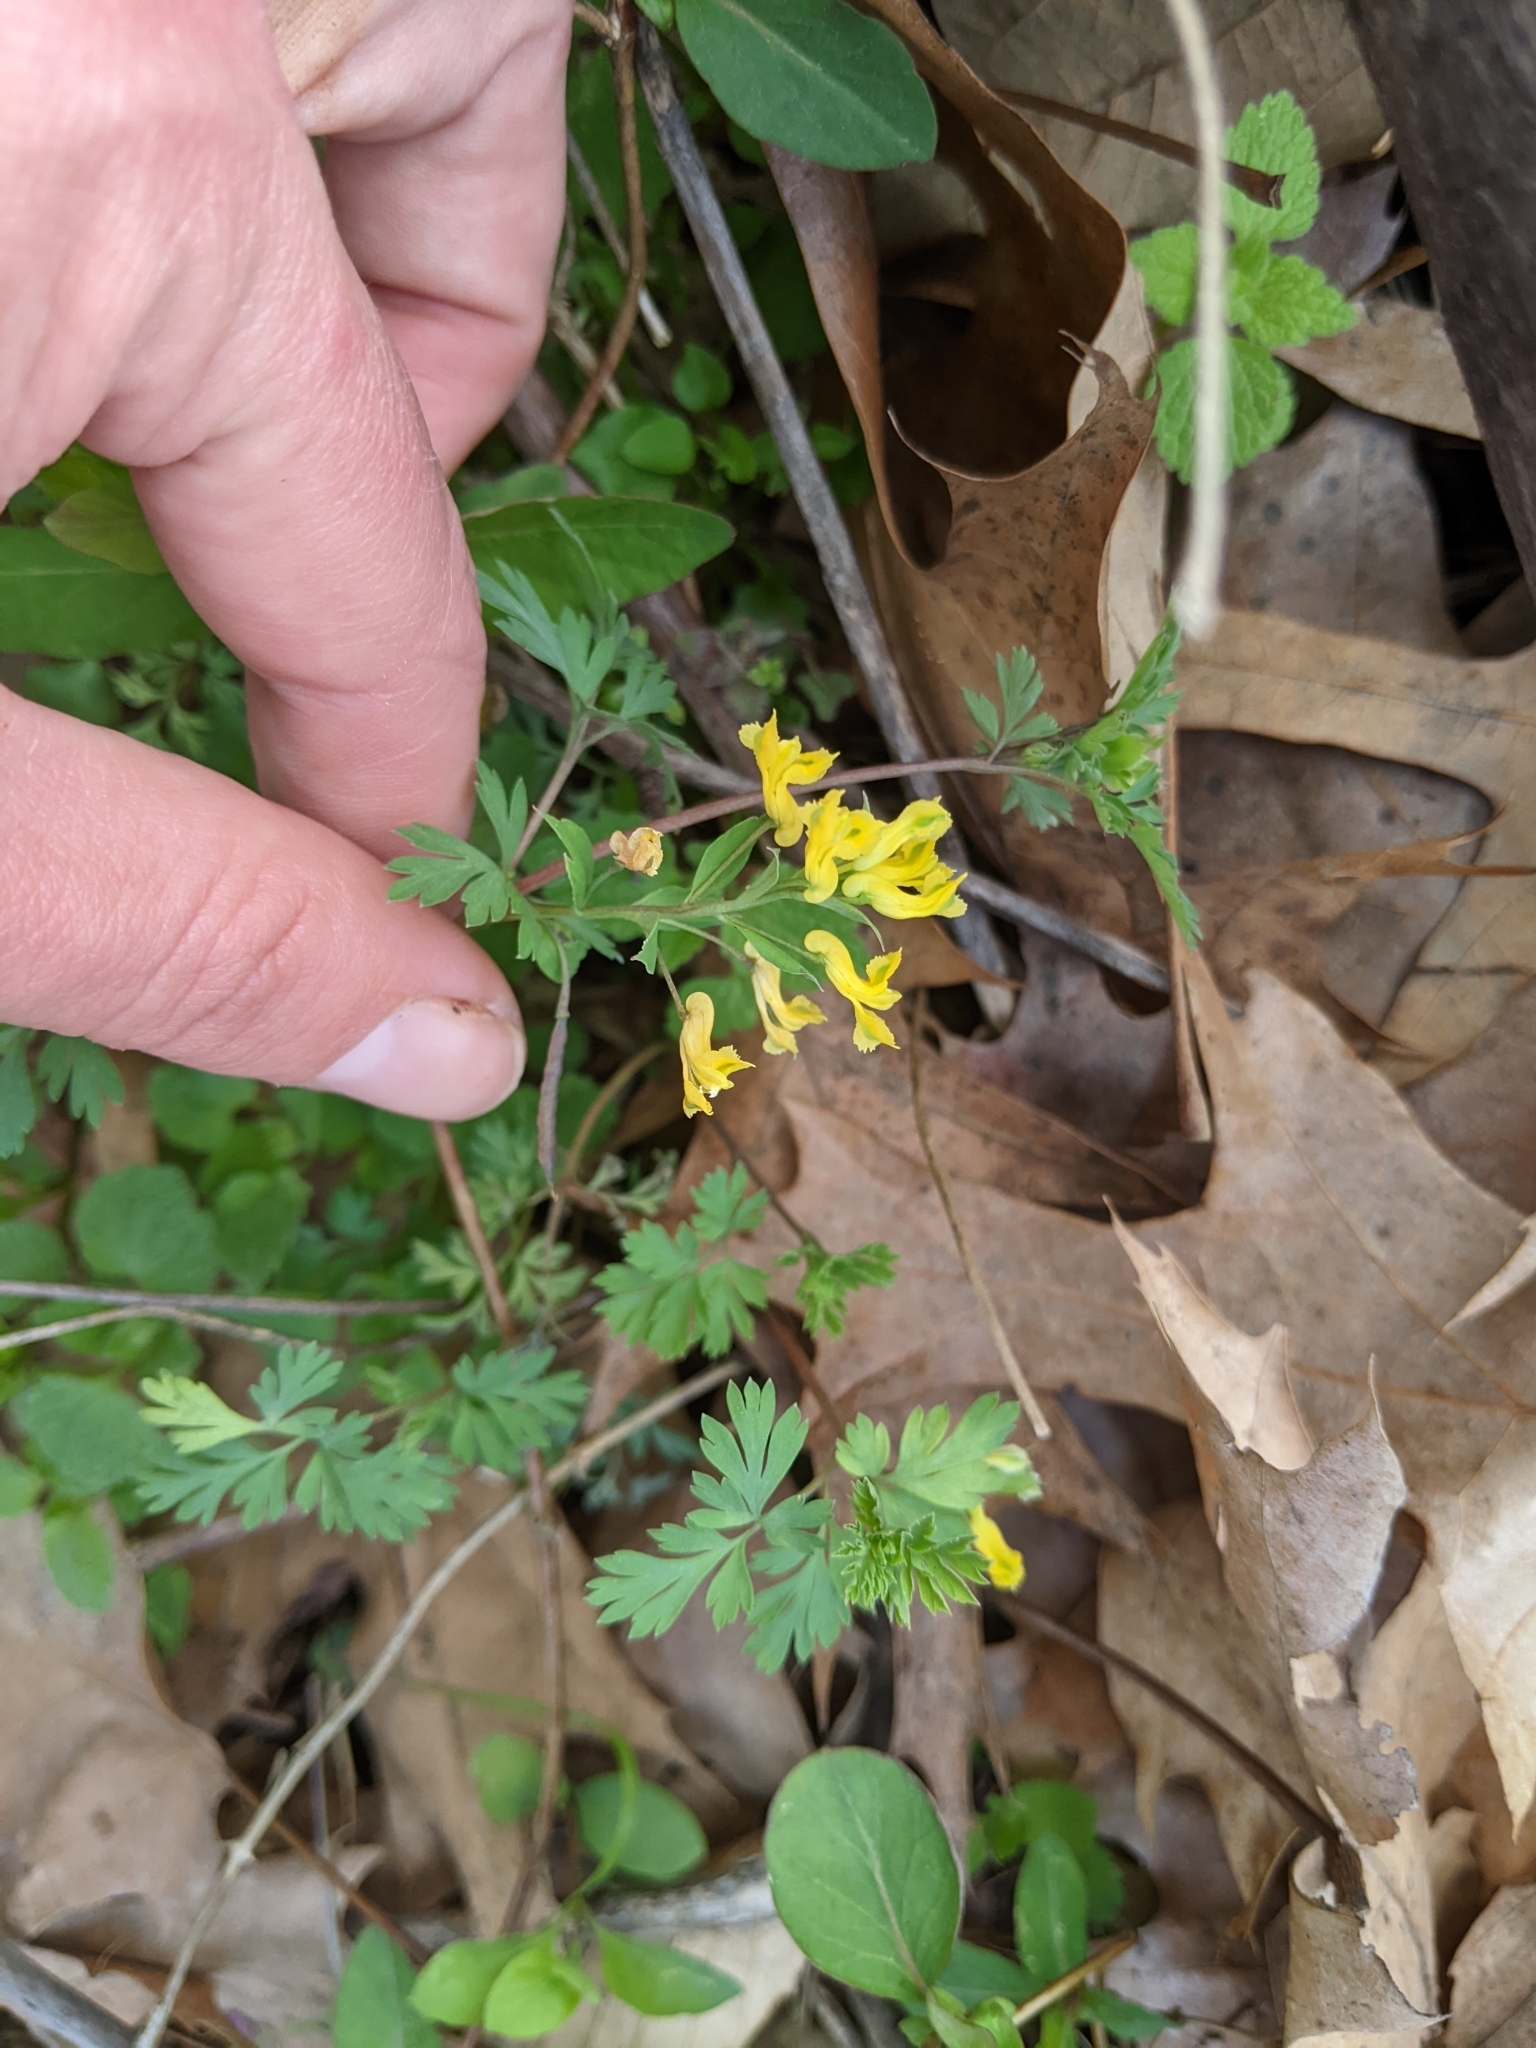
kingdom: Plantae
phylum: Tracheophyta
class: Magnoliopsida
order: Ranunculales
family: Papaveraceae
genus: Corydalis
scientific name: Corydalis flavula
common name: Yellow corydalis
